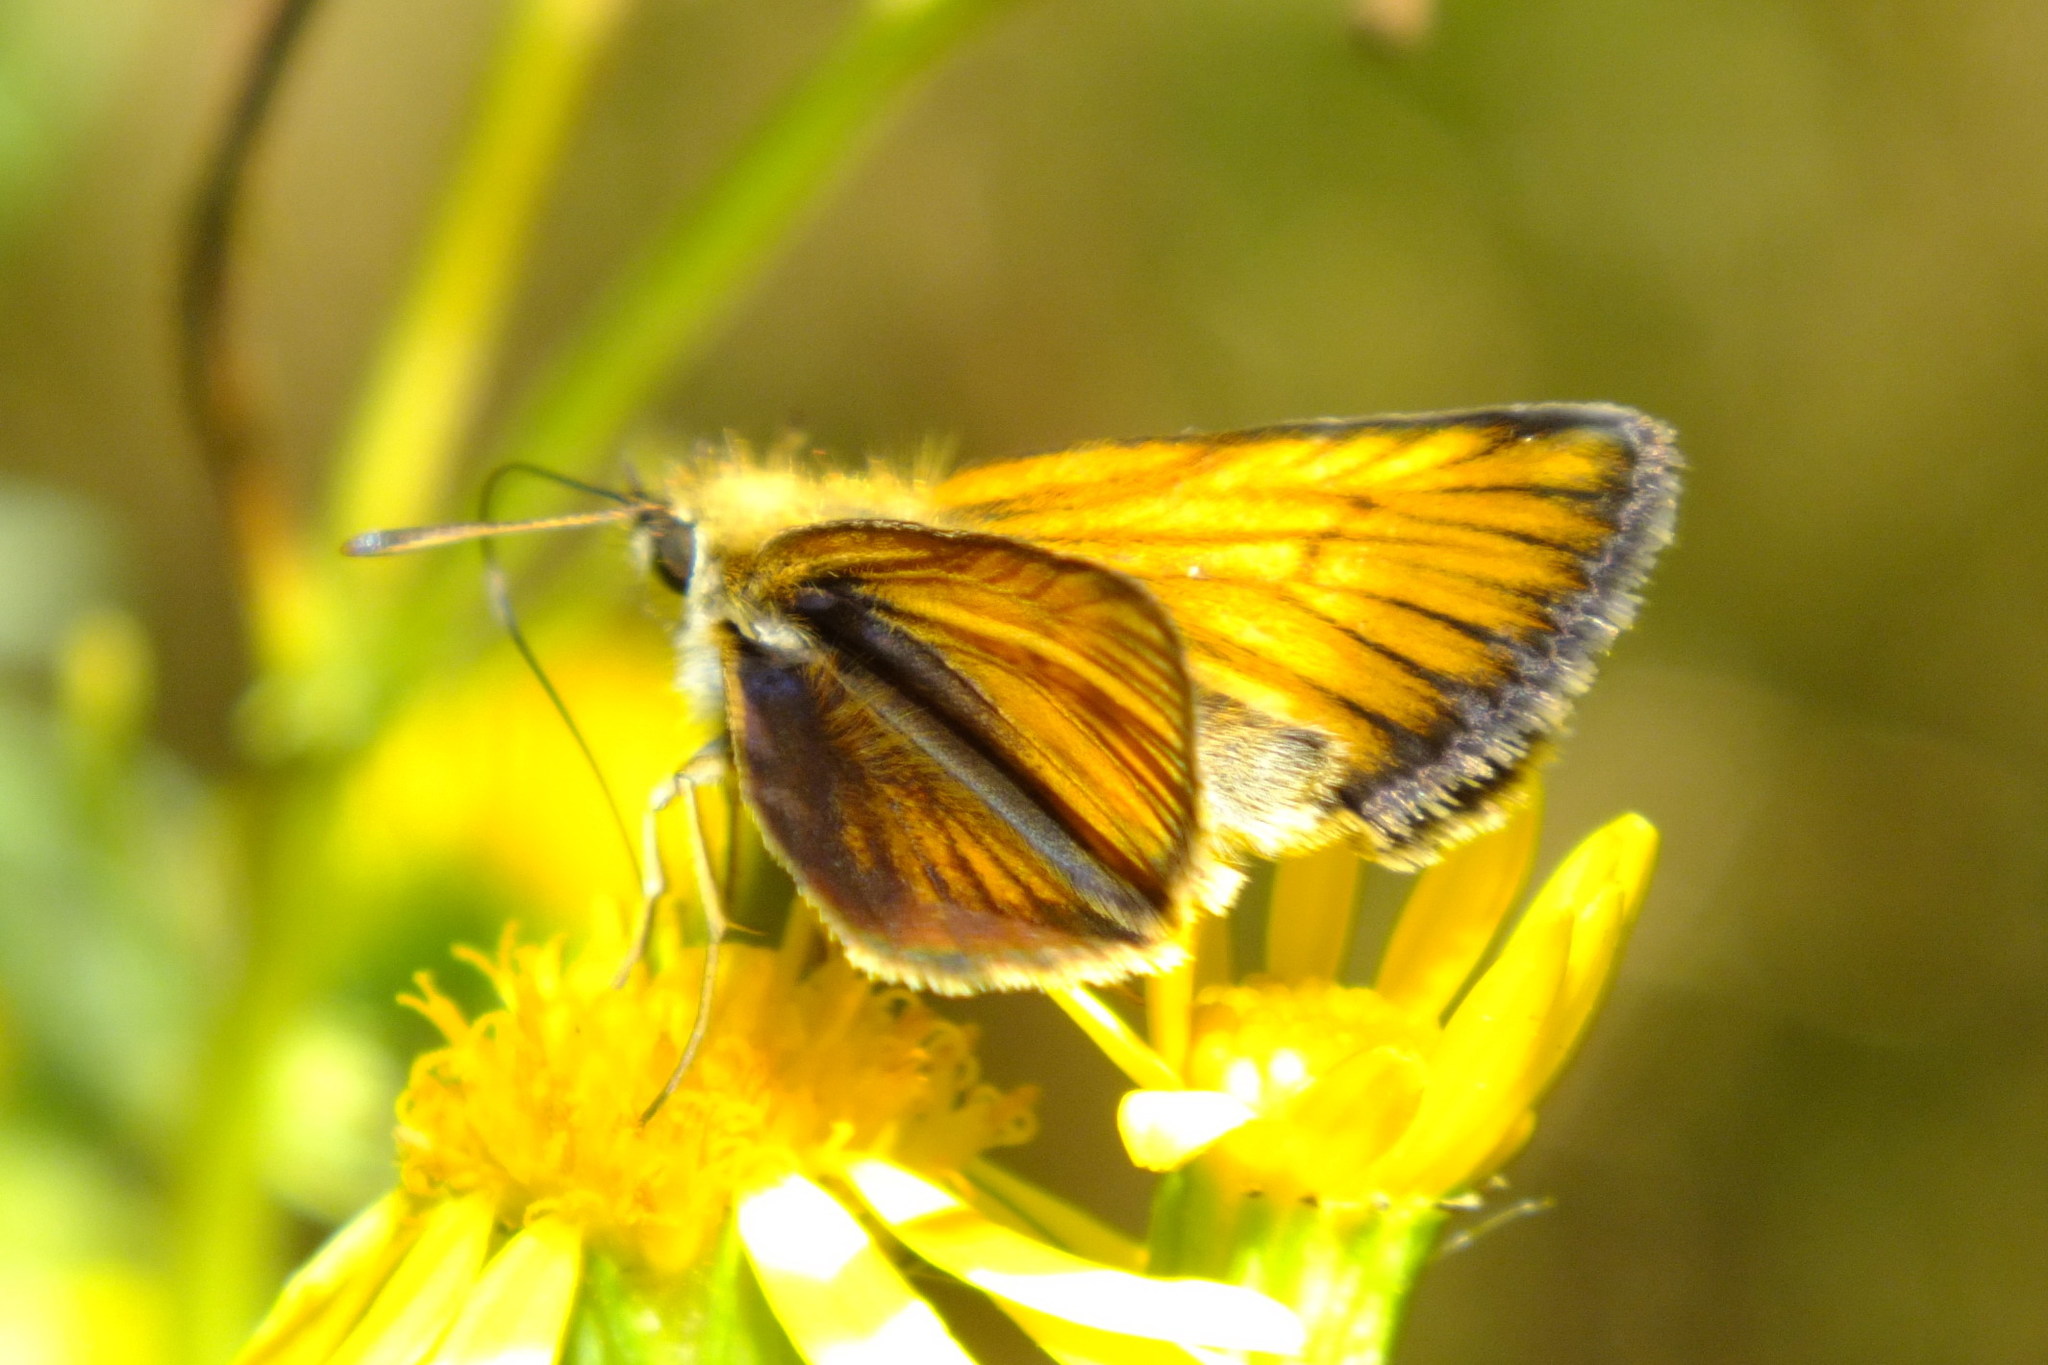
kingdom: Animalia
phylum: Arthropoda
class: Insecta
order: Lepidoptera
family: Hesperiidae
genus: Thymelicus
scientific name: Thymelicus lineola
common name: Essex skipper
